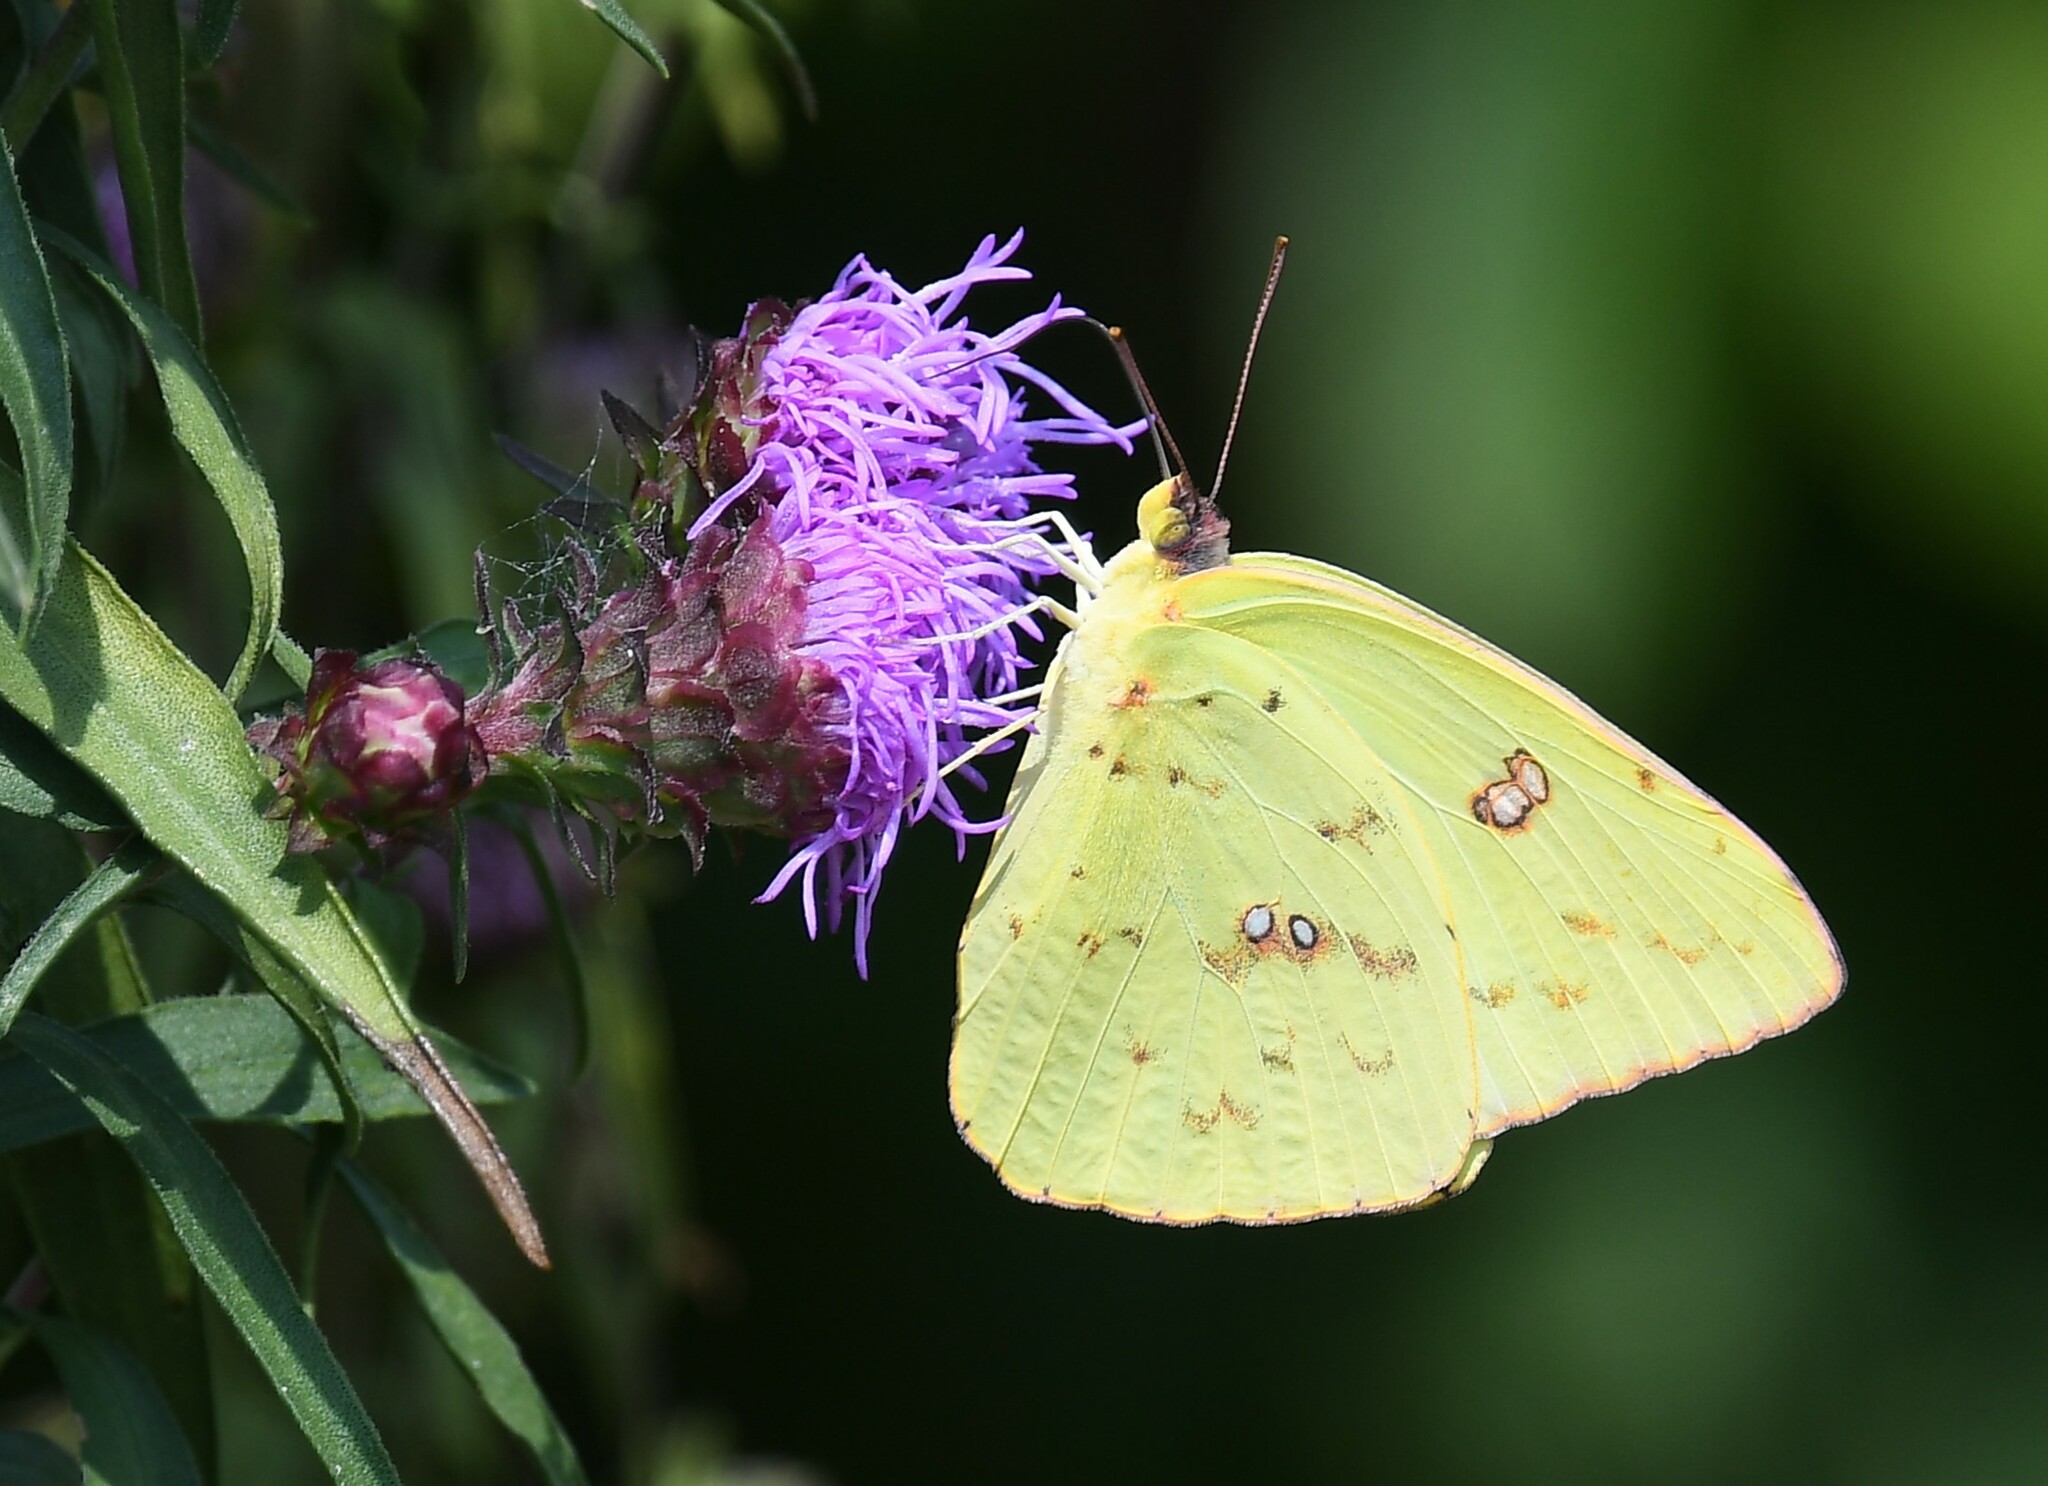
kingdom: Animalia
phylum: Arthropoda
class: Insecta
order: Lepidoptera
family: Pieridae
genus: Phoebis
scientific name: Phoebis sennae
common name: Cloudless sulphur
